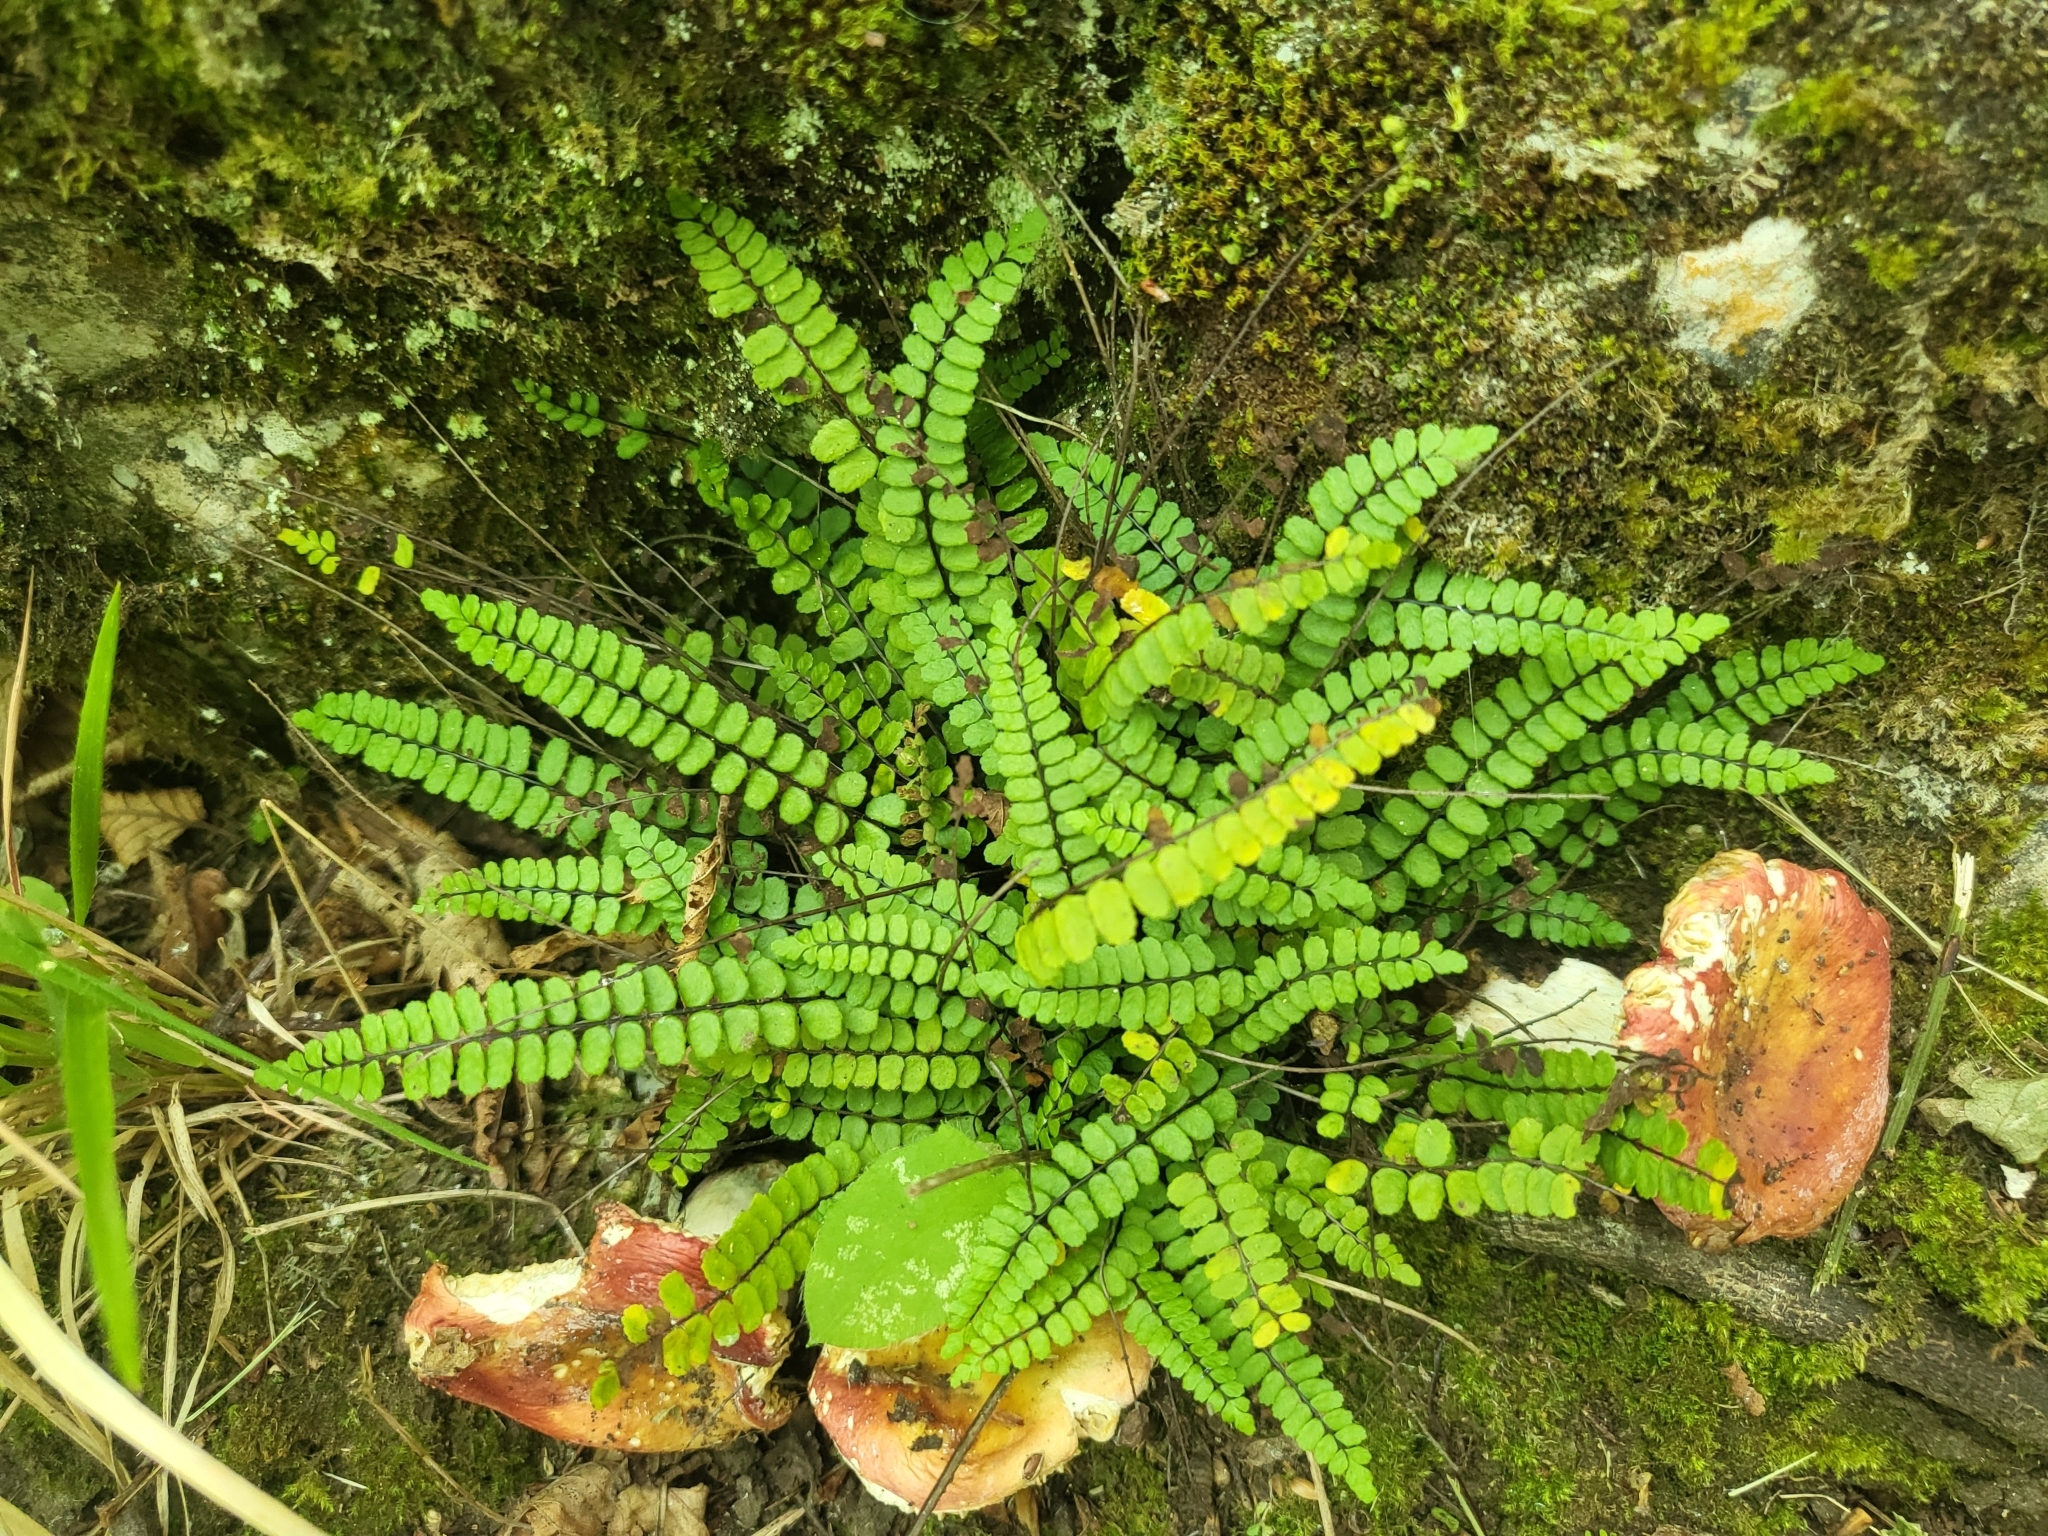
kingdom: Plantae
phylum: Tracheophyta
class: Polypodiopsida
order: Polypodiales
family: Aspleniaceae
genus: Asplenium
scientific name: Asplenium trichomanes
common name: Maidenhair spleenwort
